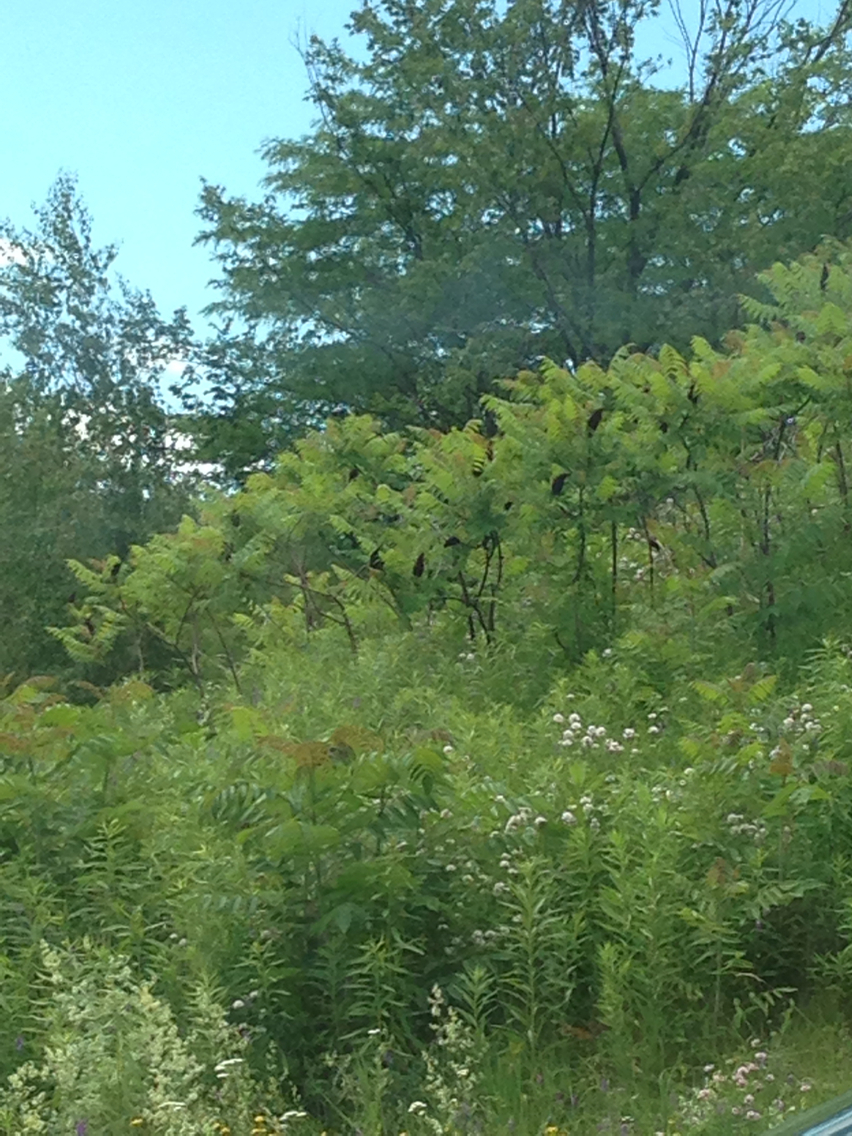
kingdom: Plantae
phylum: Tracheophyta
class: Magnoliopsida
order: Sapindales
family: Anacardiaceae
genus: Rhus
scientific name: Rhus typhina
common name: Staghorn sumac
